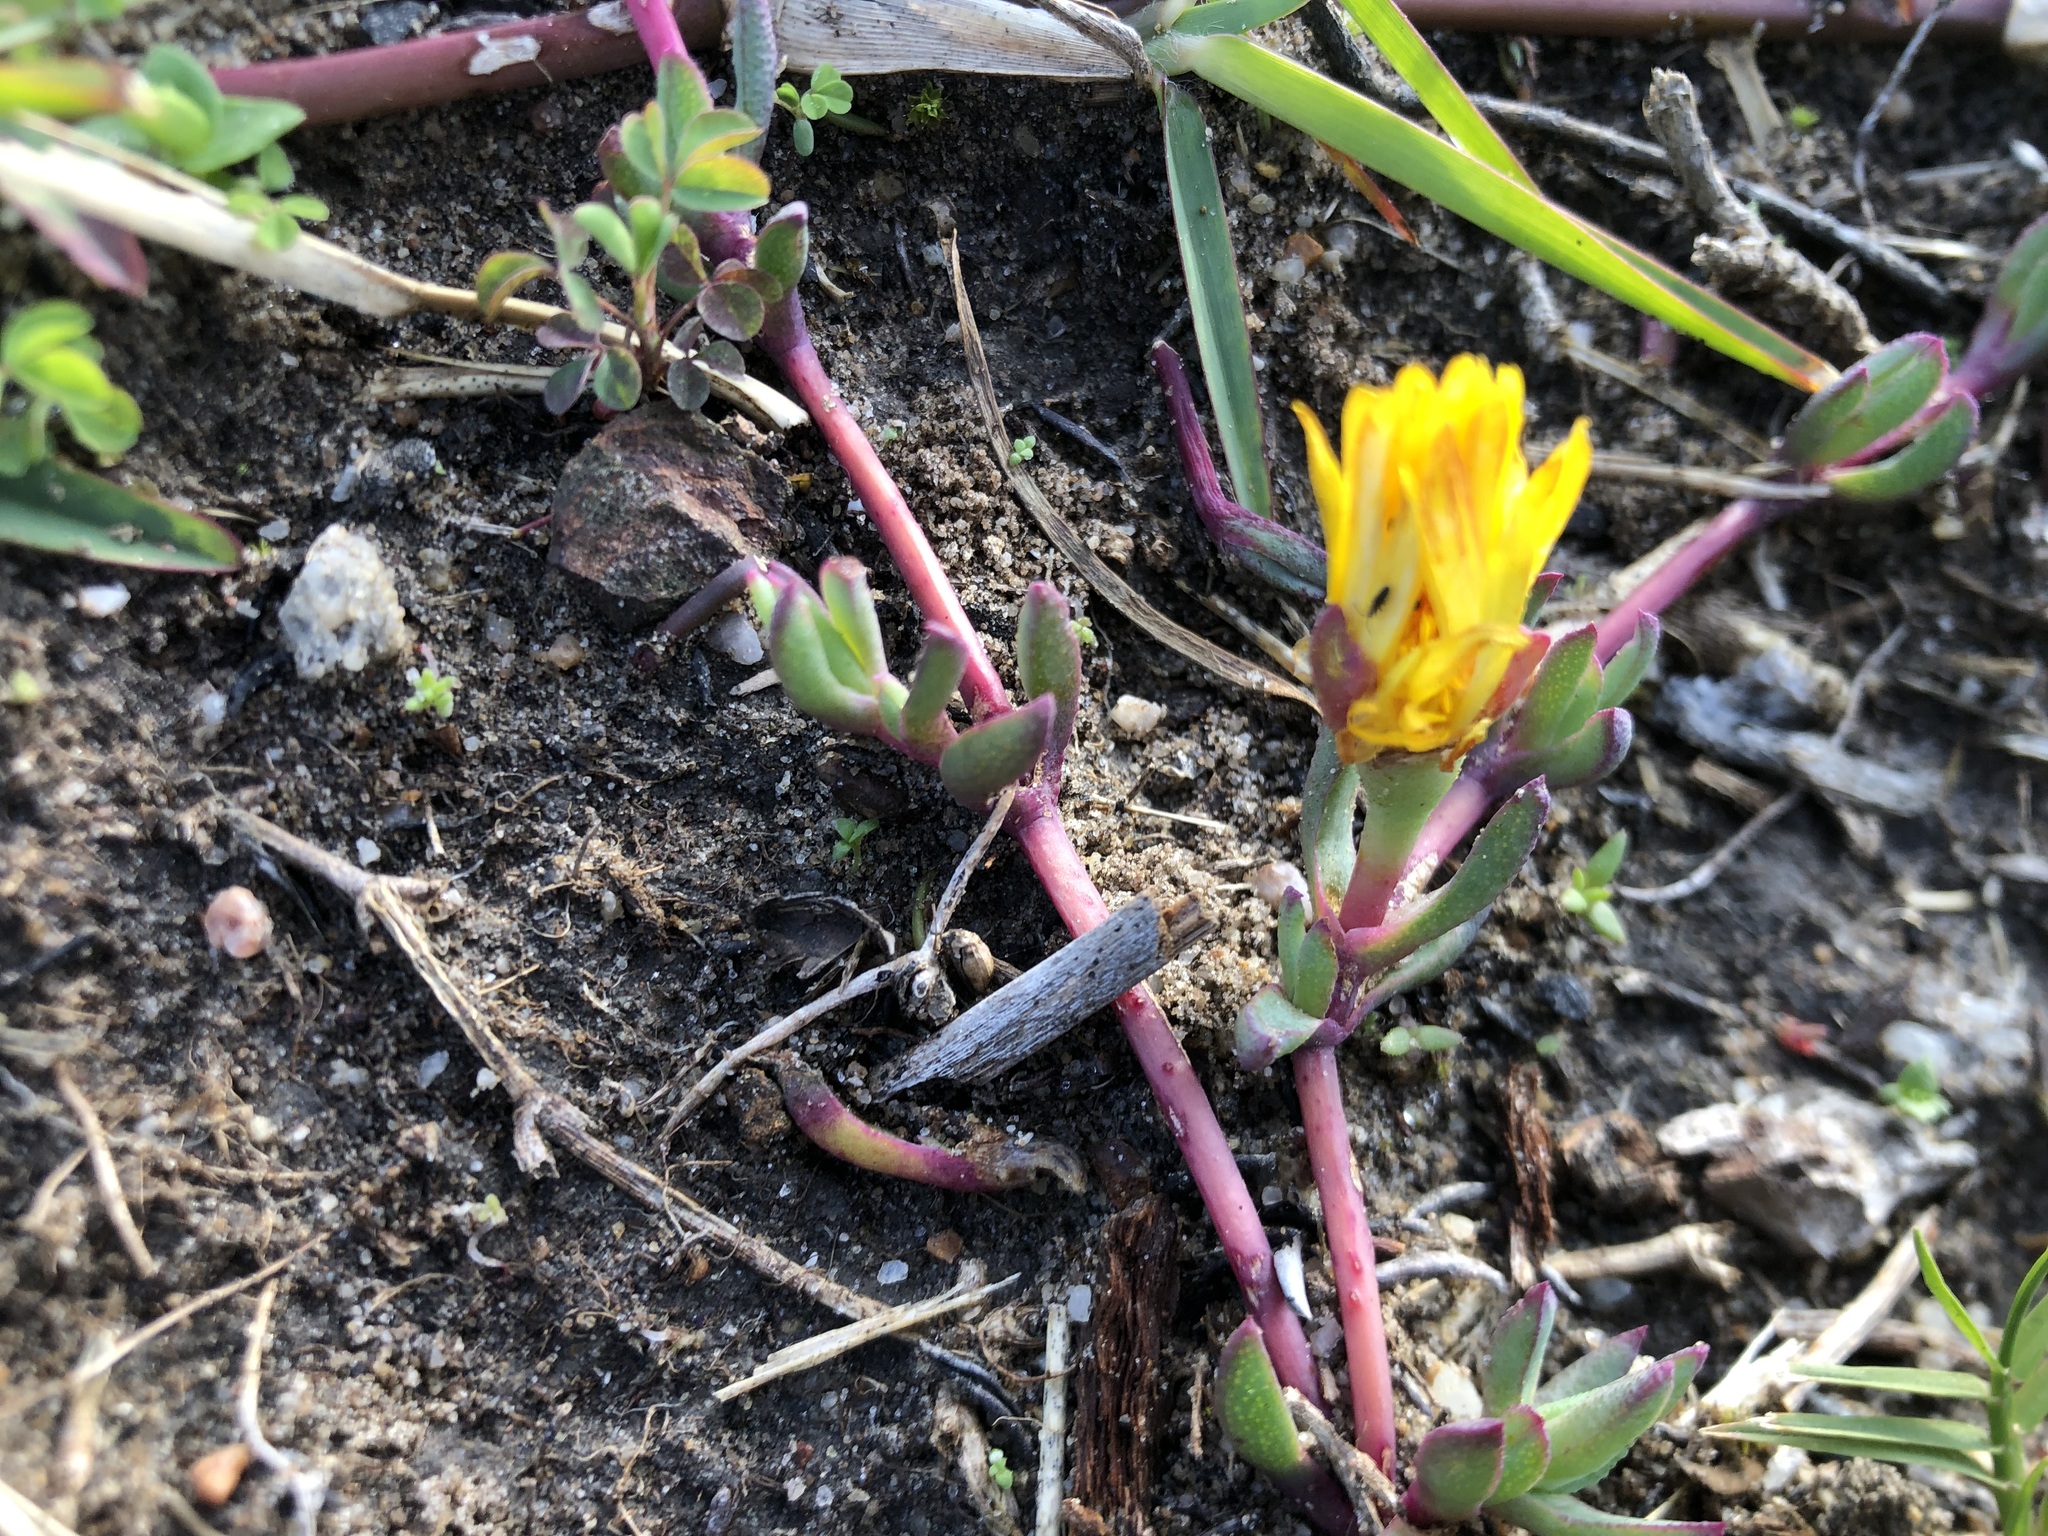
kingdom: Plantae
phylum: Tracheophyta
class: Magnoliopsida
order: Caryophyllales
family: Aizoaceae
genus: Lampranthus
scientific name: Lampranthus reptans
